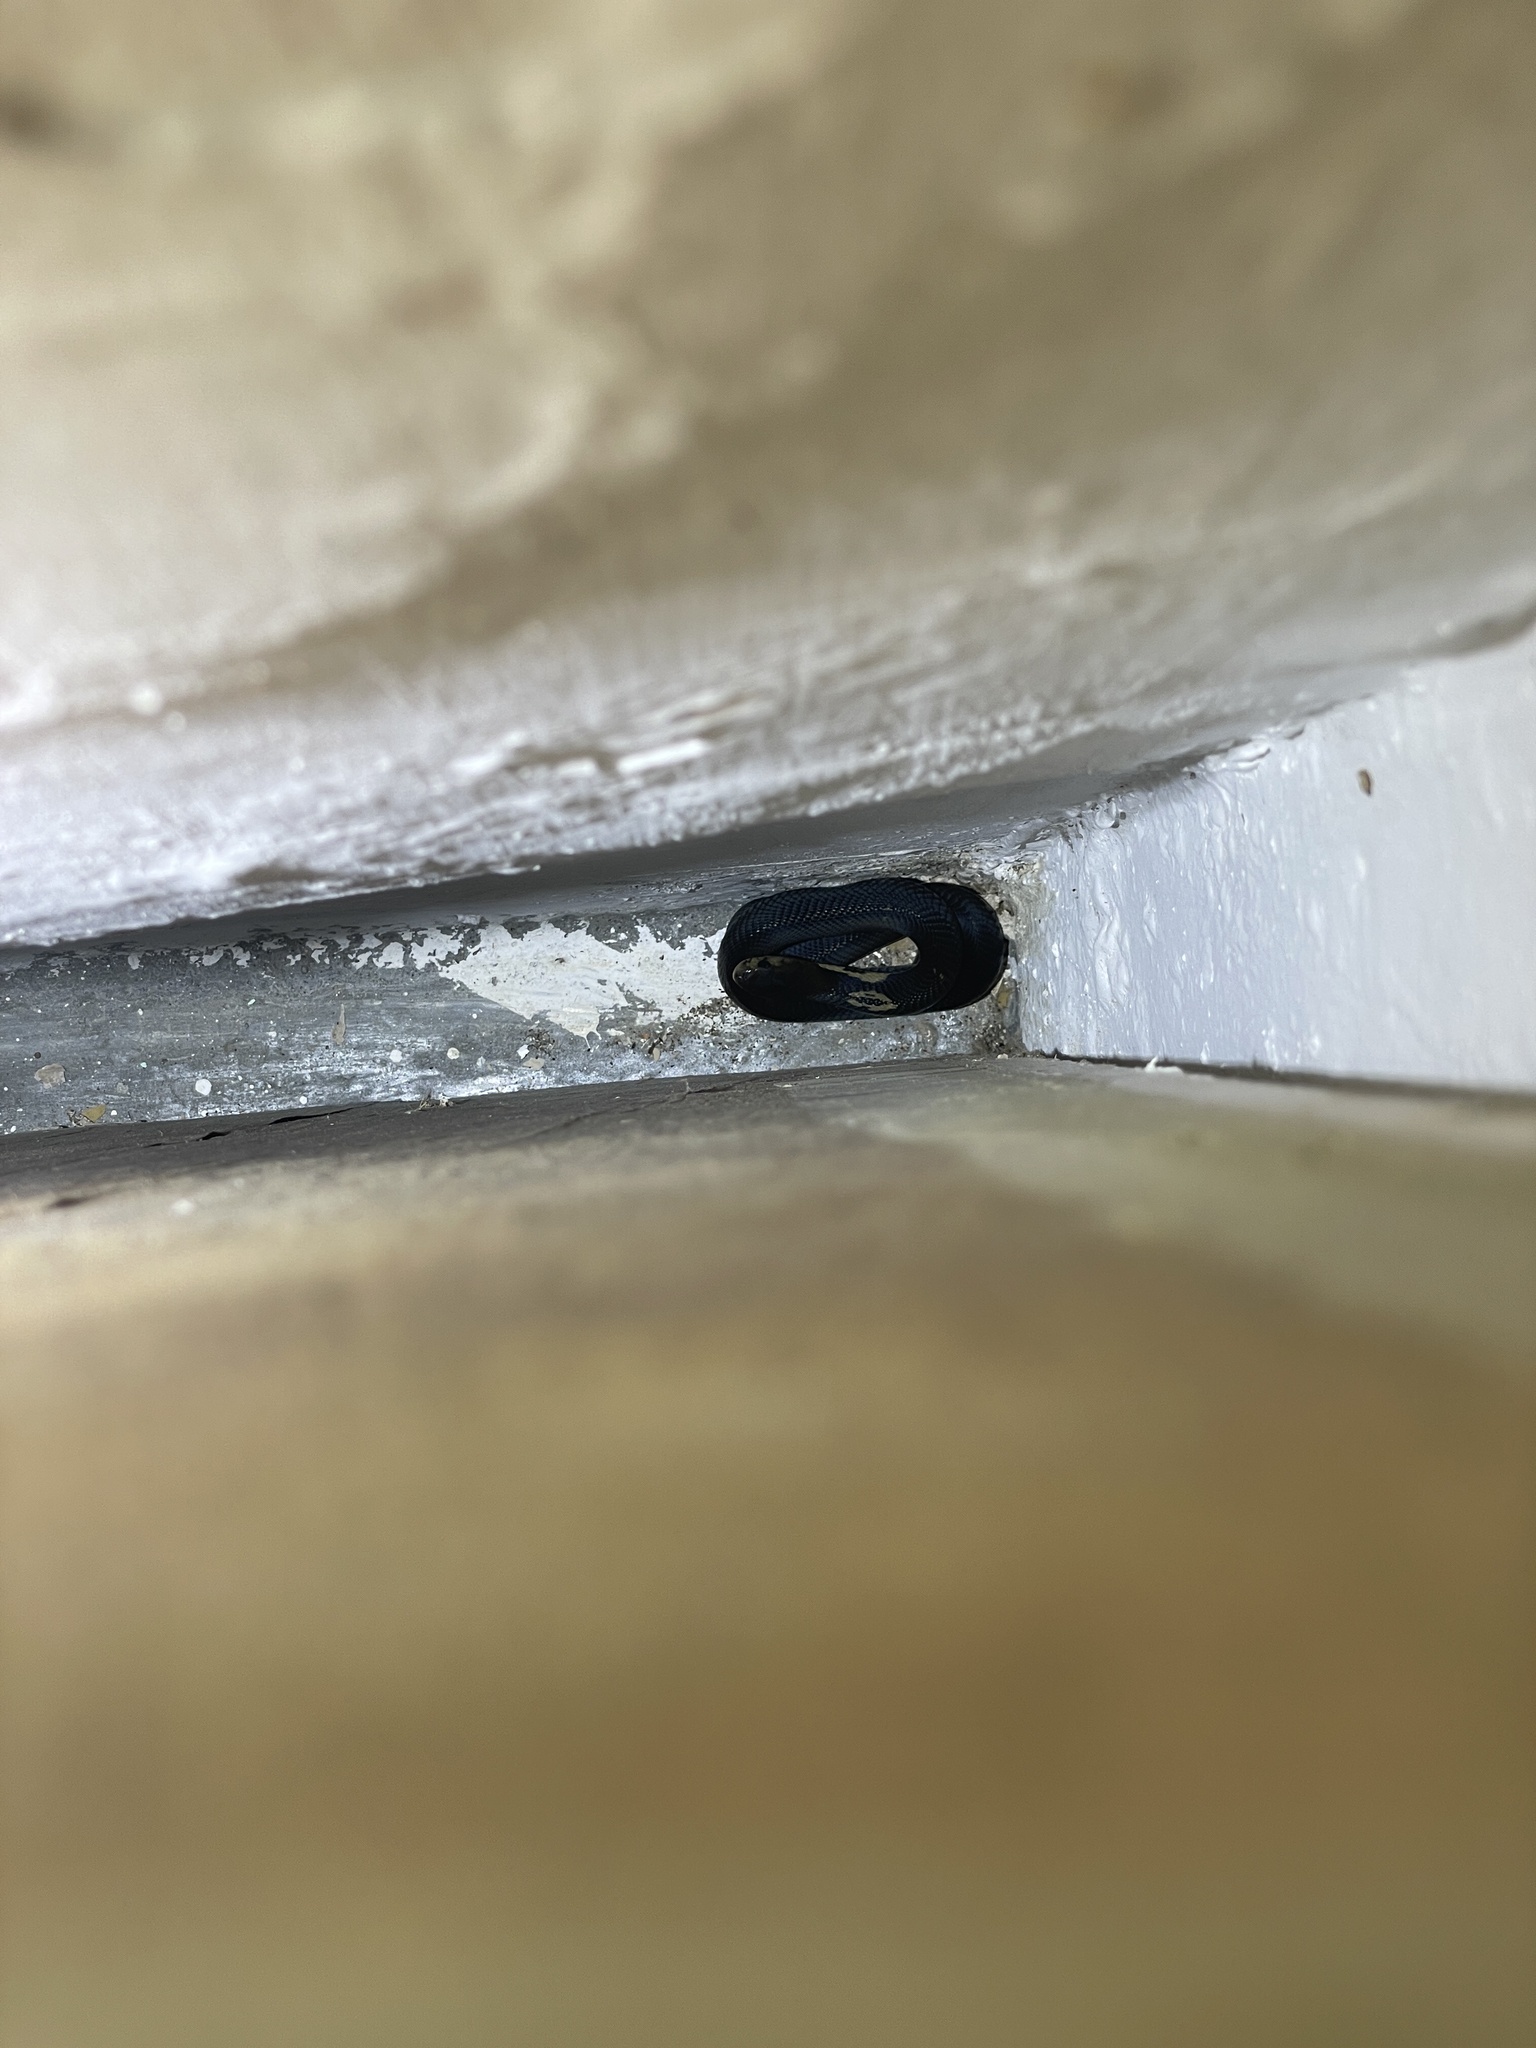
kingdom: Animalia
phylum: Chordata
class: Squamata
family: Elapidae
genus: Naja
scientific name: Naja atra
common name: Chinese cobra
